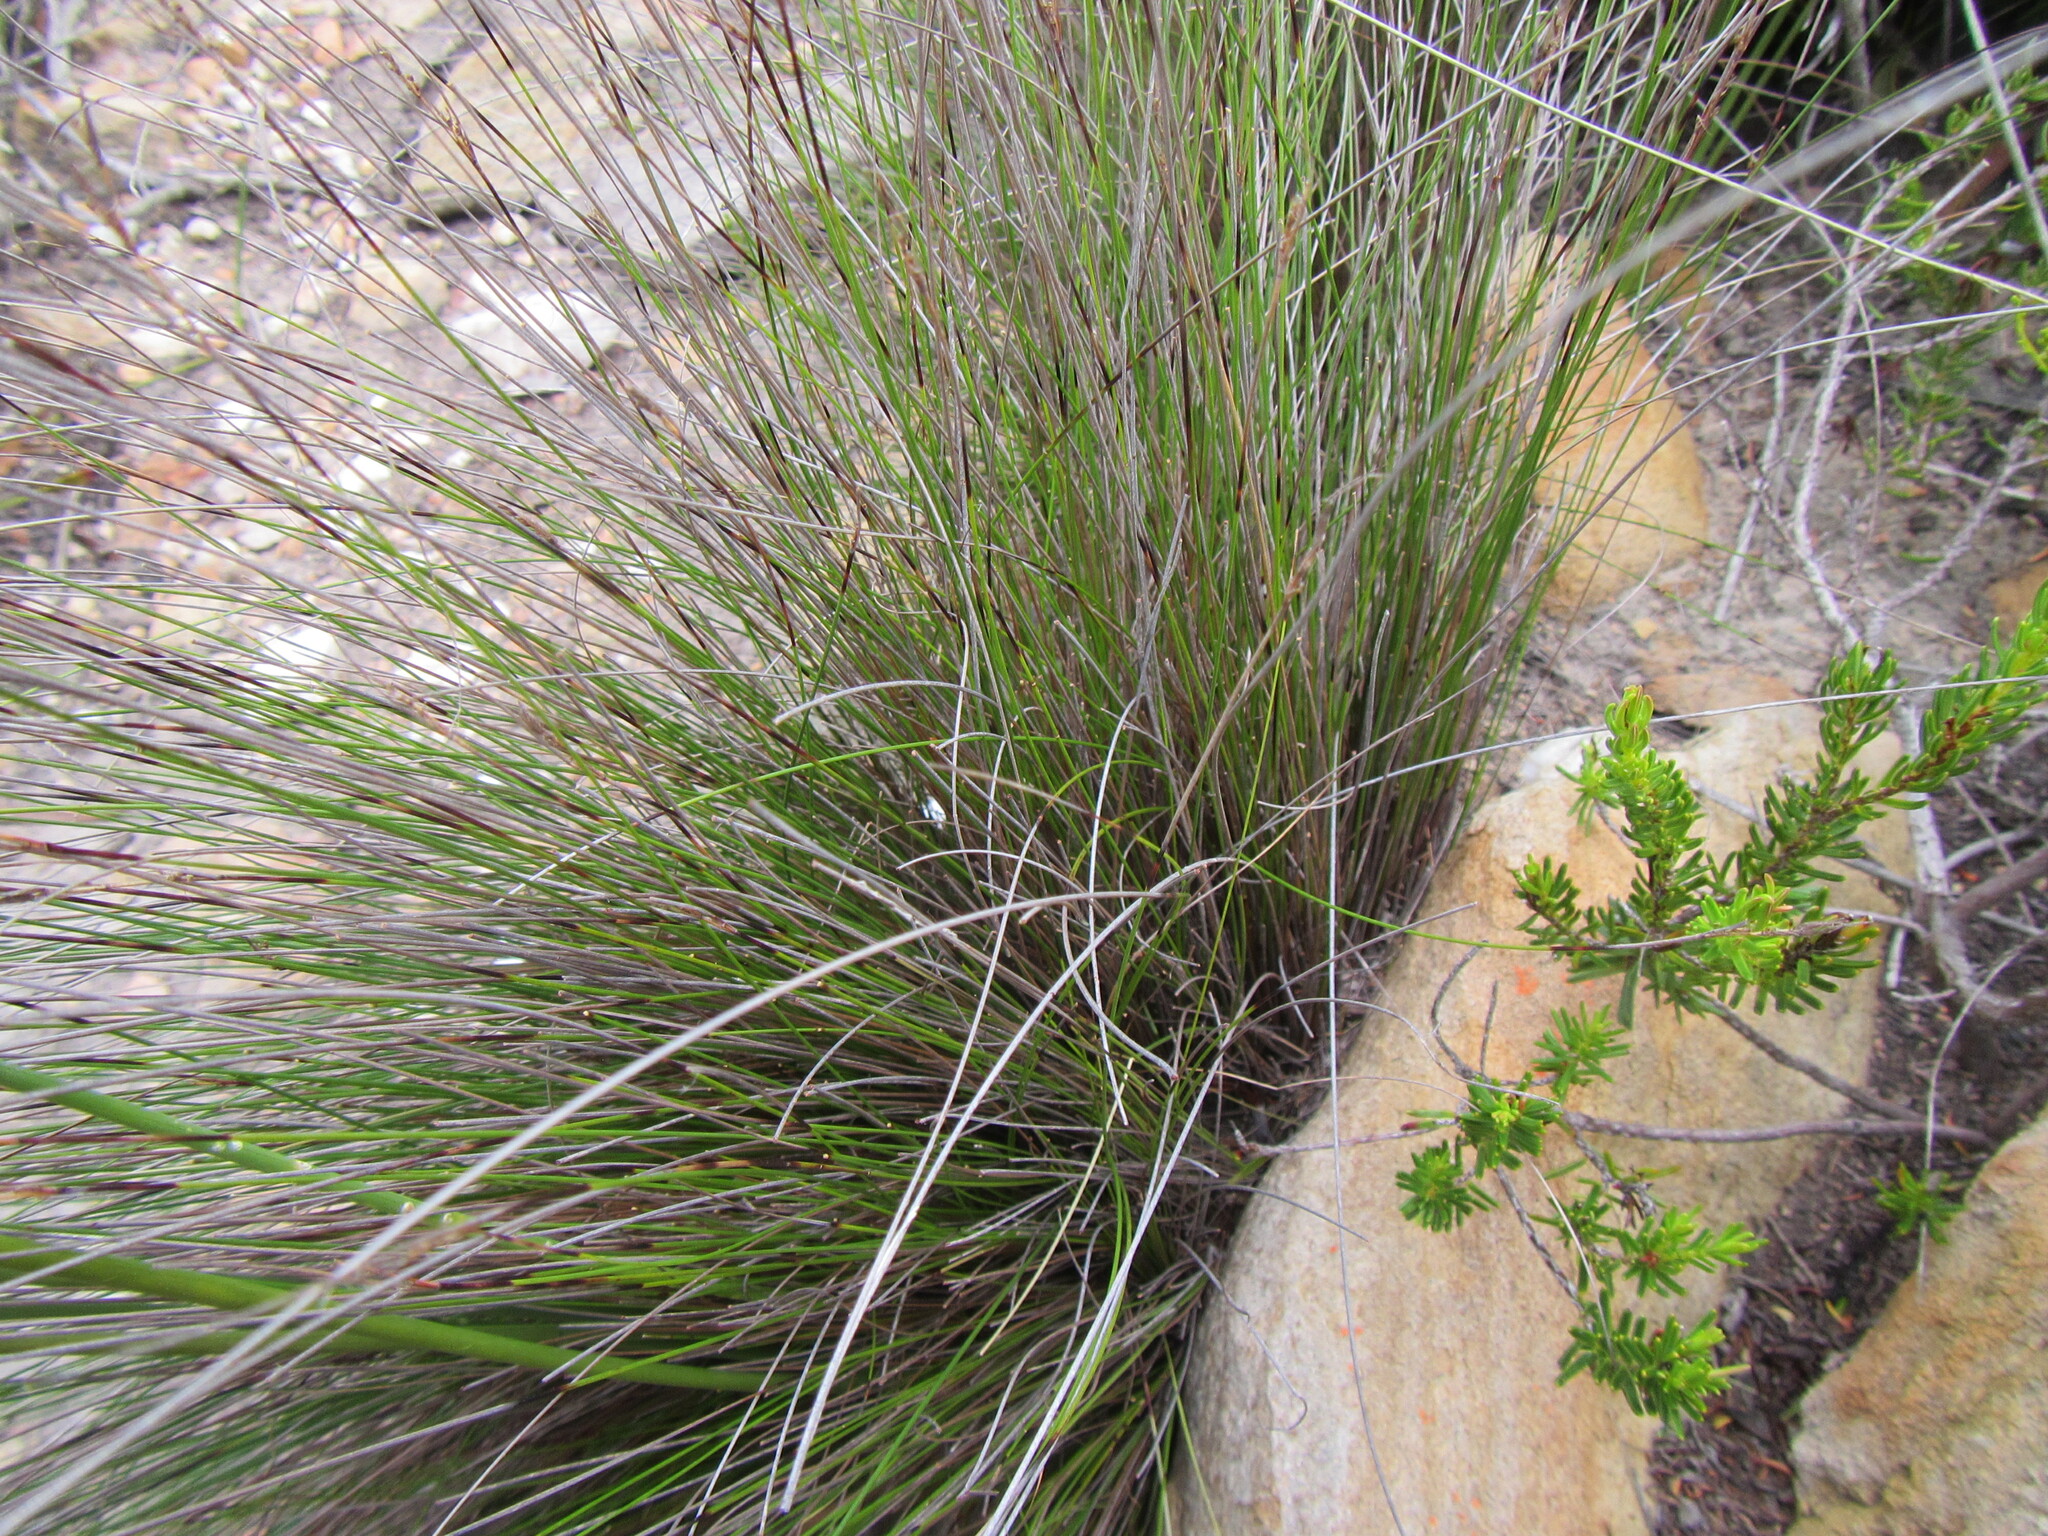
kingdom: Plantae
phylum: Tracheophyta
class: Liliopsida
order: Poales
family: Cyperaceae
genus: Schoenus
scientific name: Schoenus exilis
